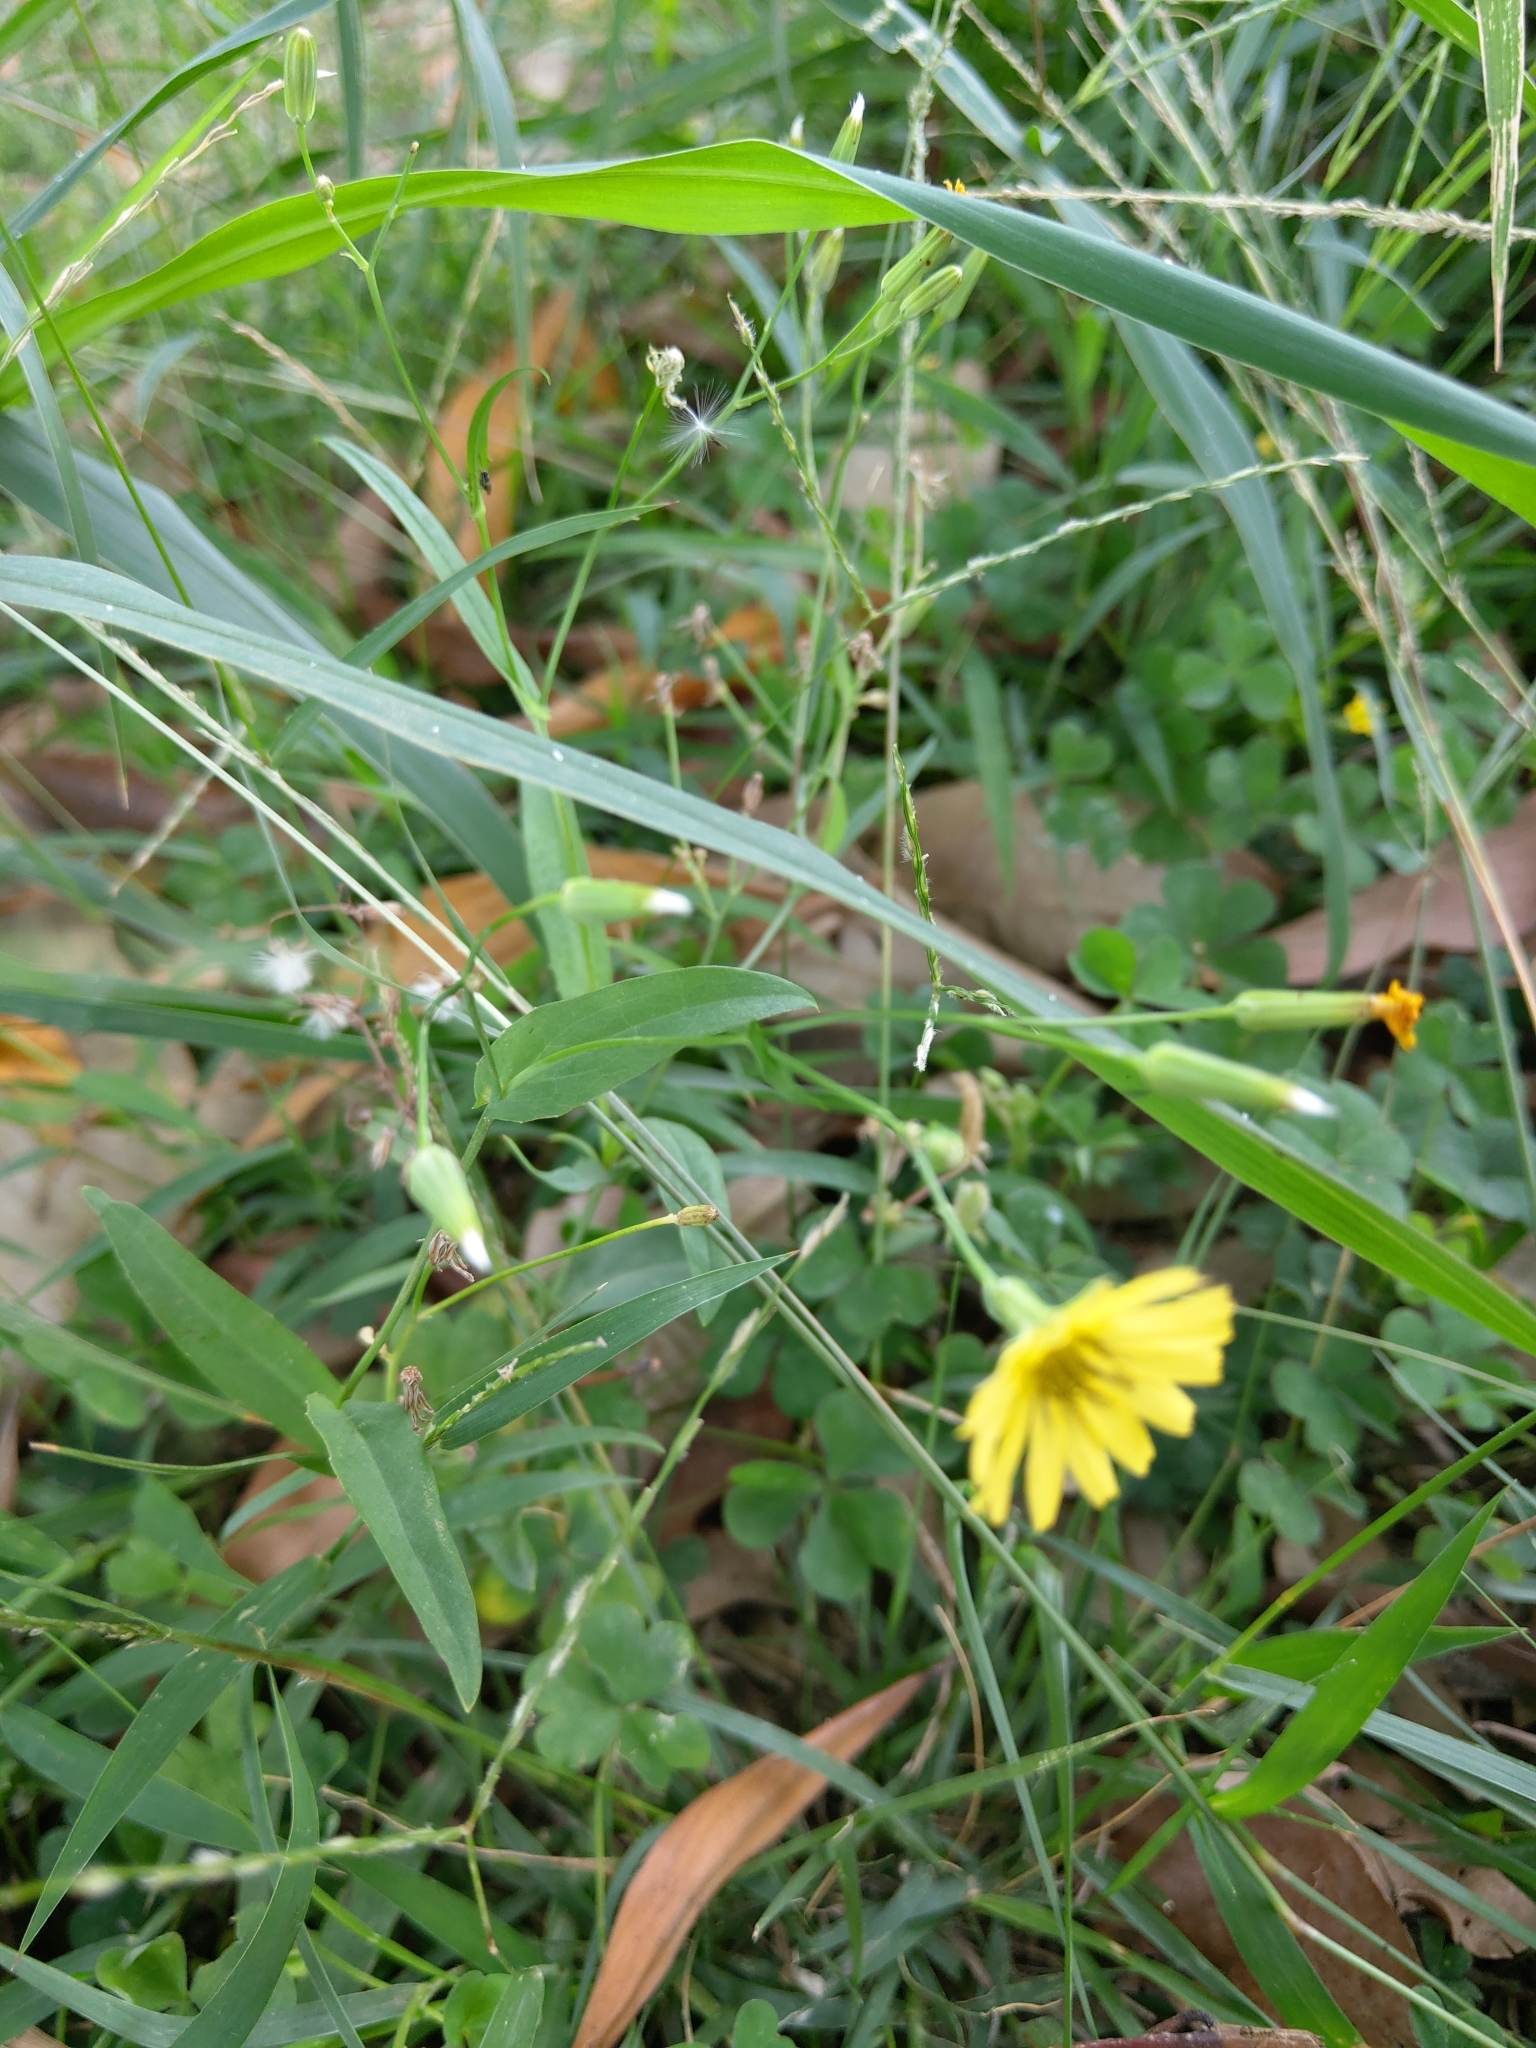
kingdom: Plantae
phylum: Tracheophyta
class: Magnoliopsida
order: Asterales
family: Asteraceae
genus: Ixeris
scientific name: Ixeris chinensis
